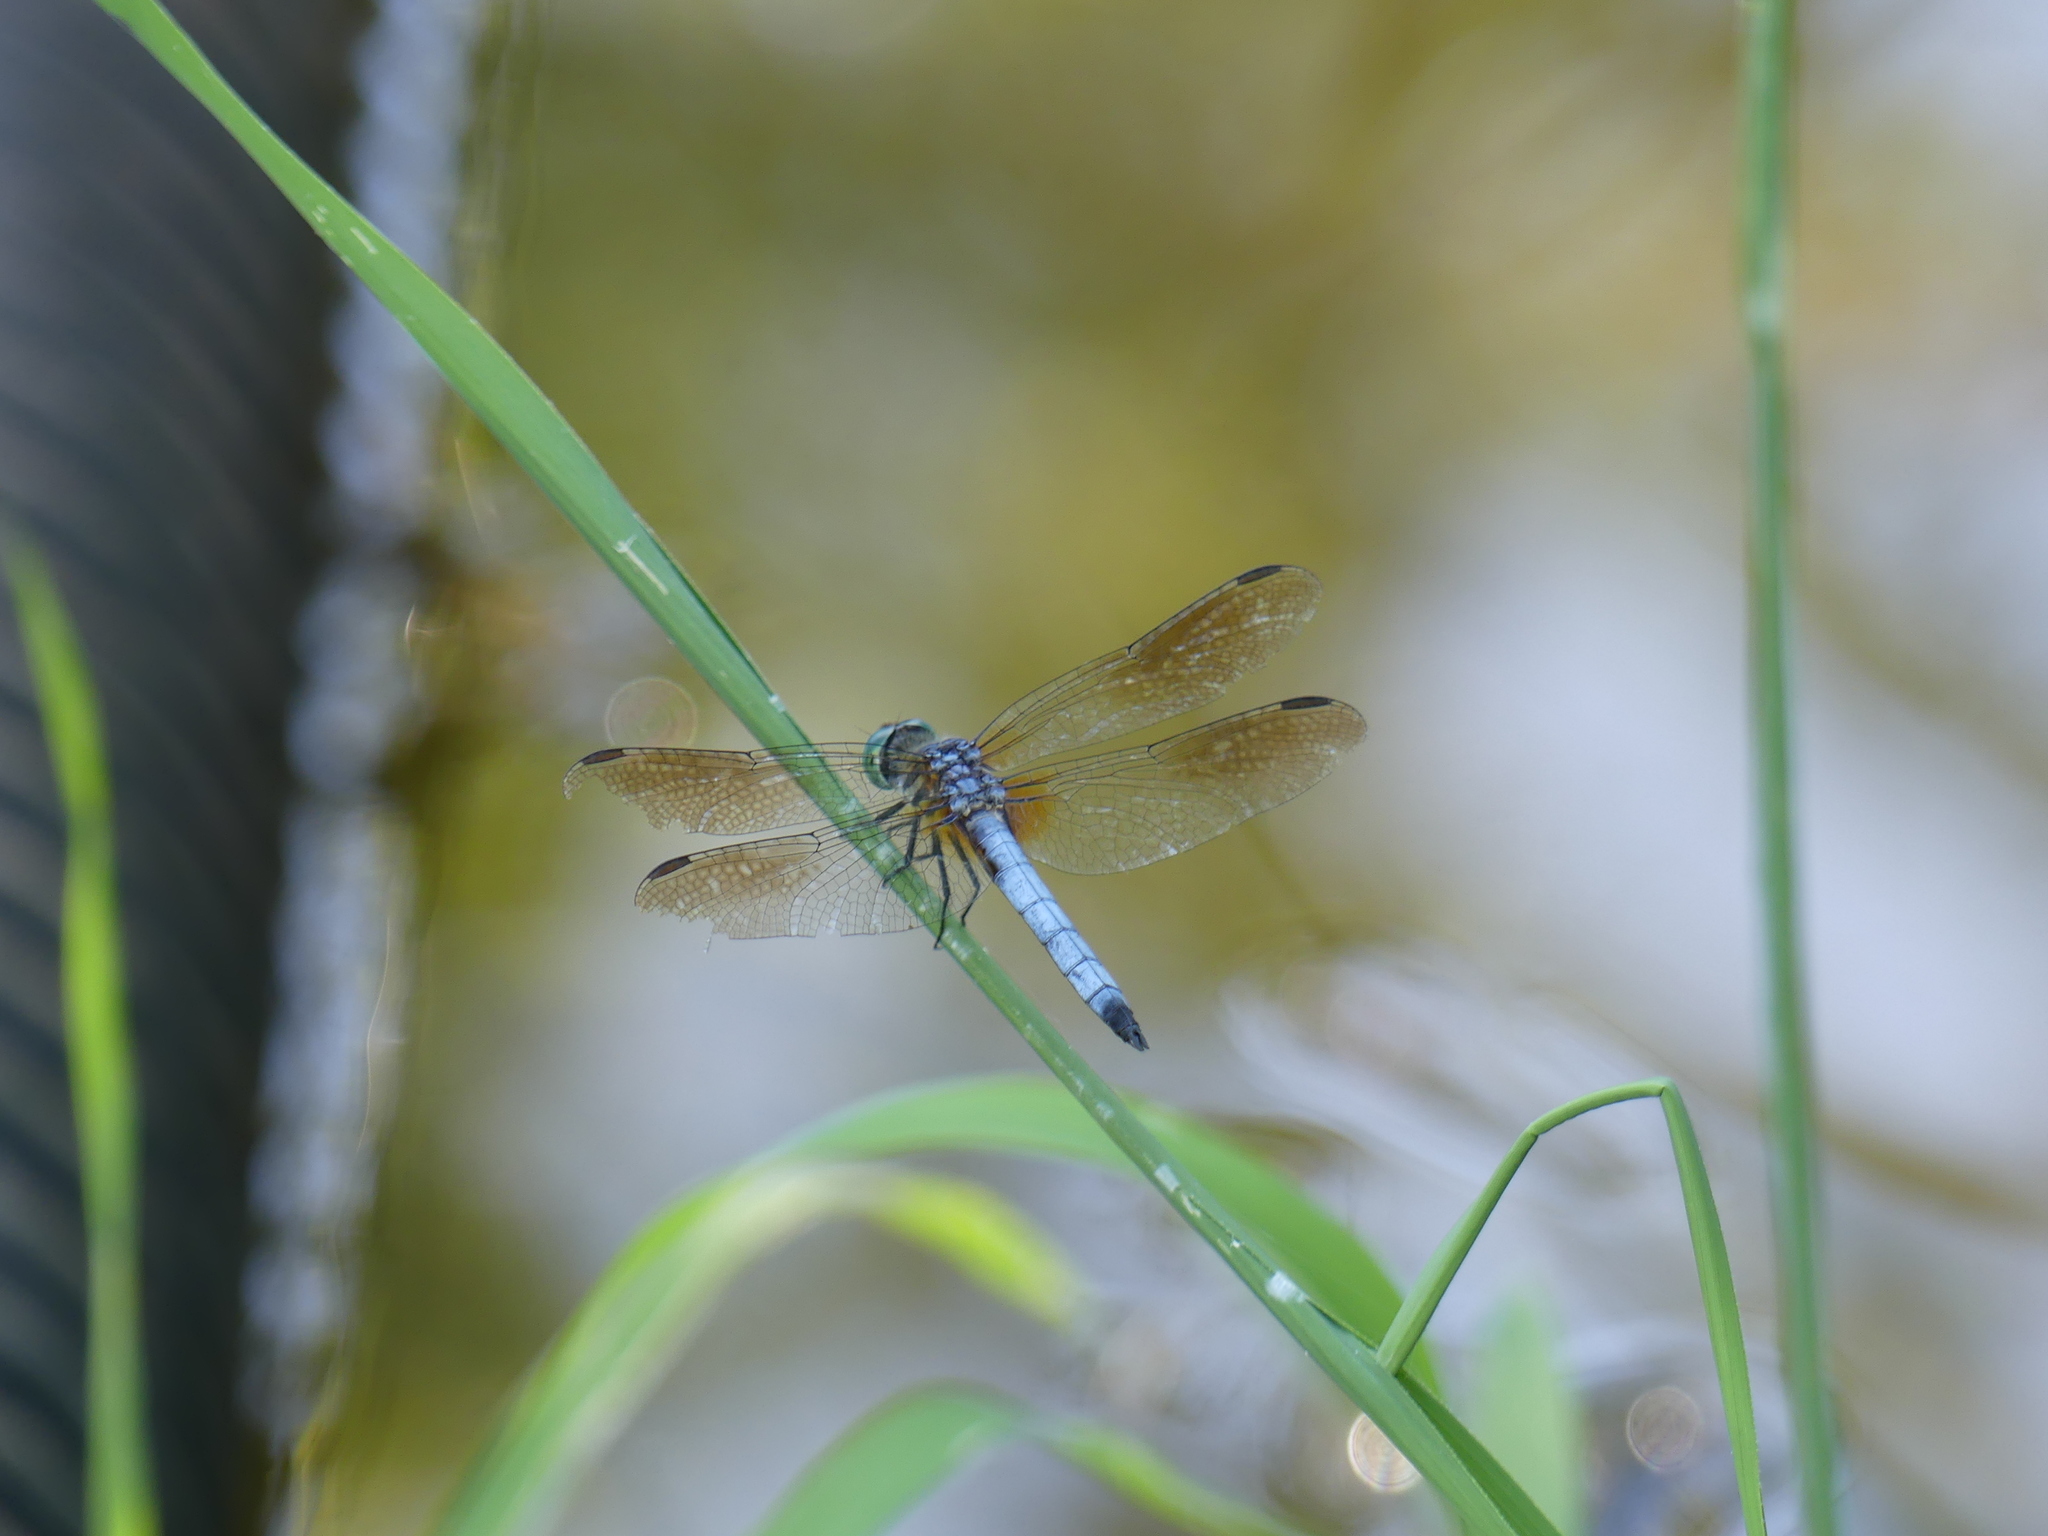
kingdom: Animalia
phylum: Arthropoda
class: Insecta
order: Odonata
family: Libellulidae
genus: Pachydiplax
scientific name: Pachydiplax longipennis
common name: Blue dasher
